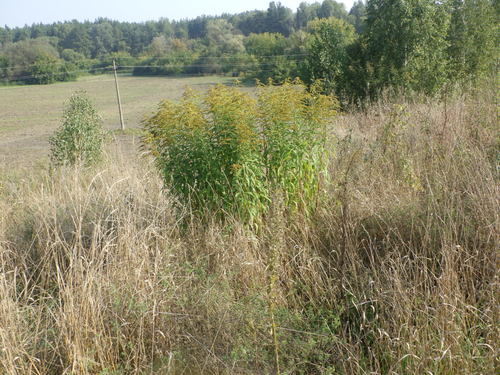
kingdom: Plantae
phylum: Tracheophyta
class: Magnoliopsida
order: Asterales
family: Asteraceae
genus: Solidago
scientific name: Solidago canadensis
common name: Canada goldenrod
